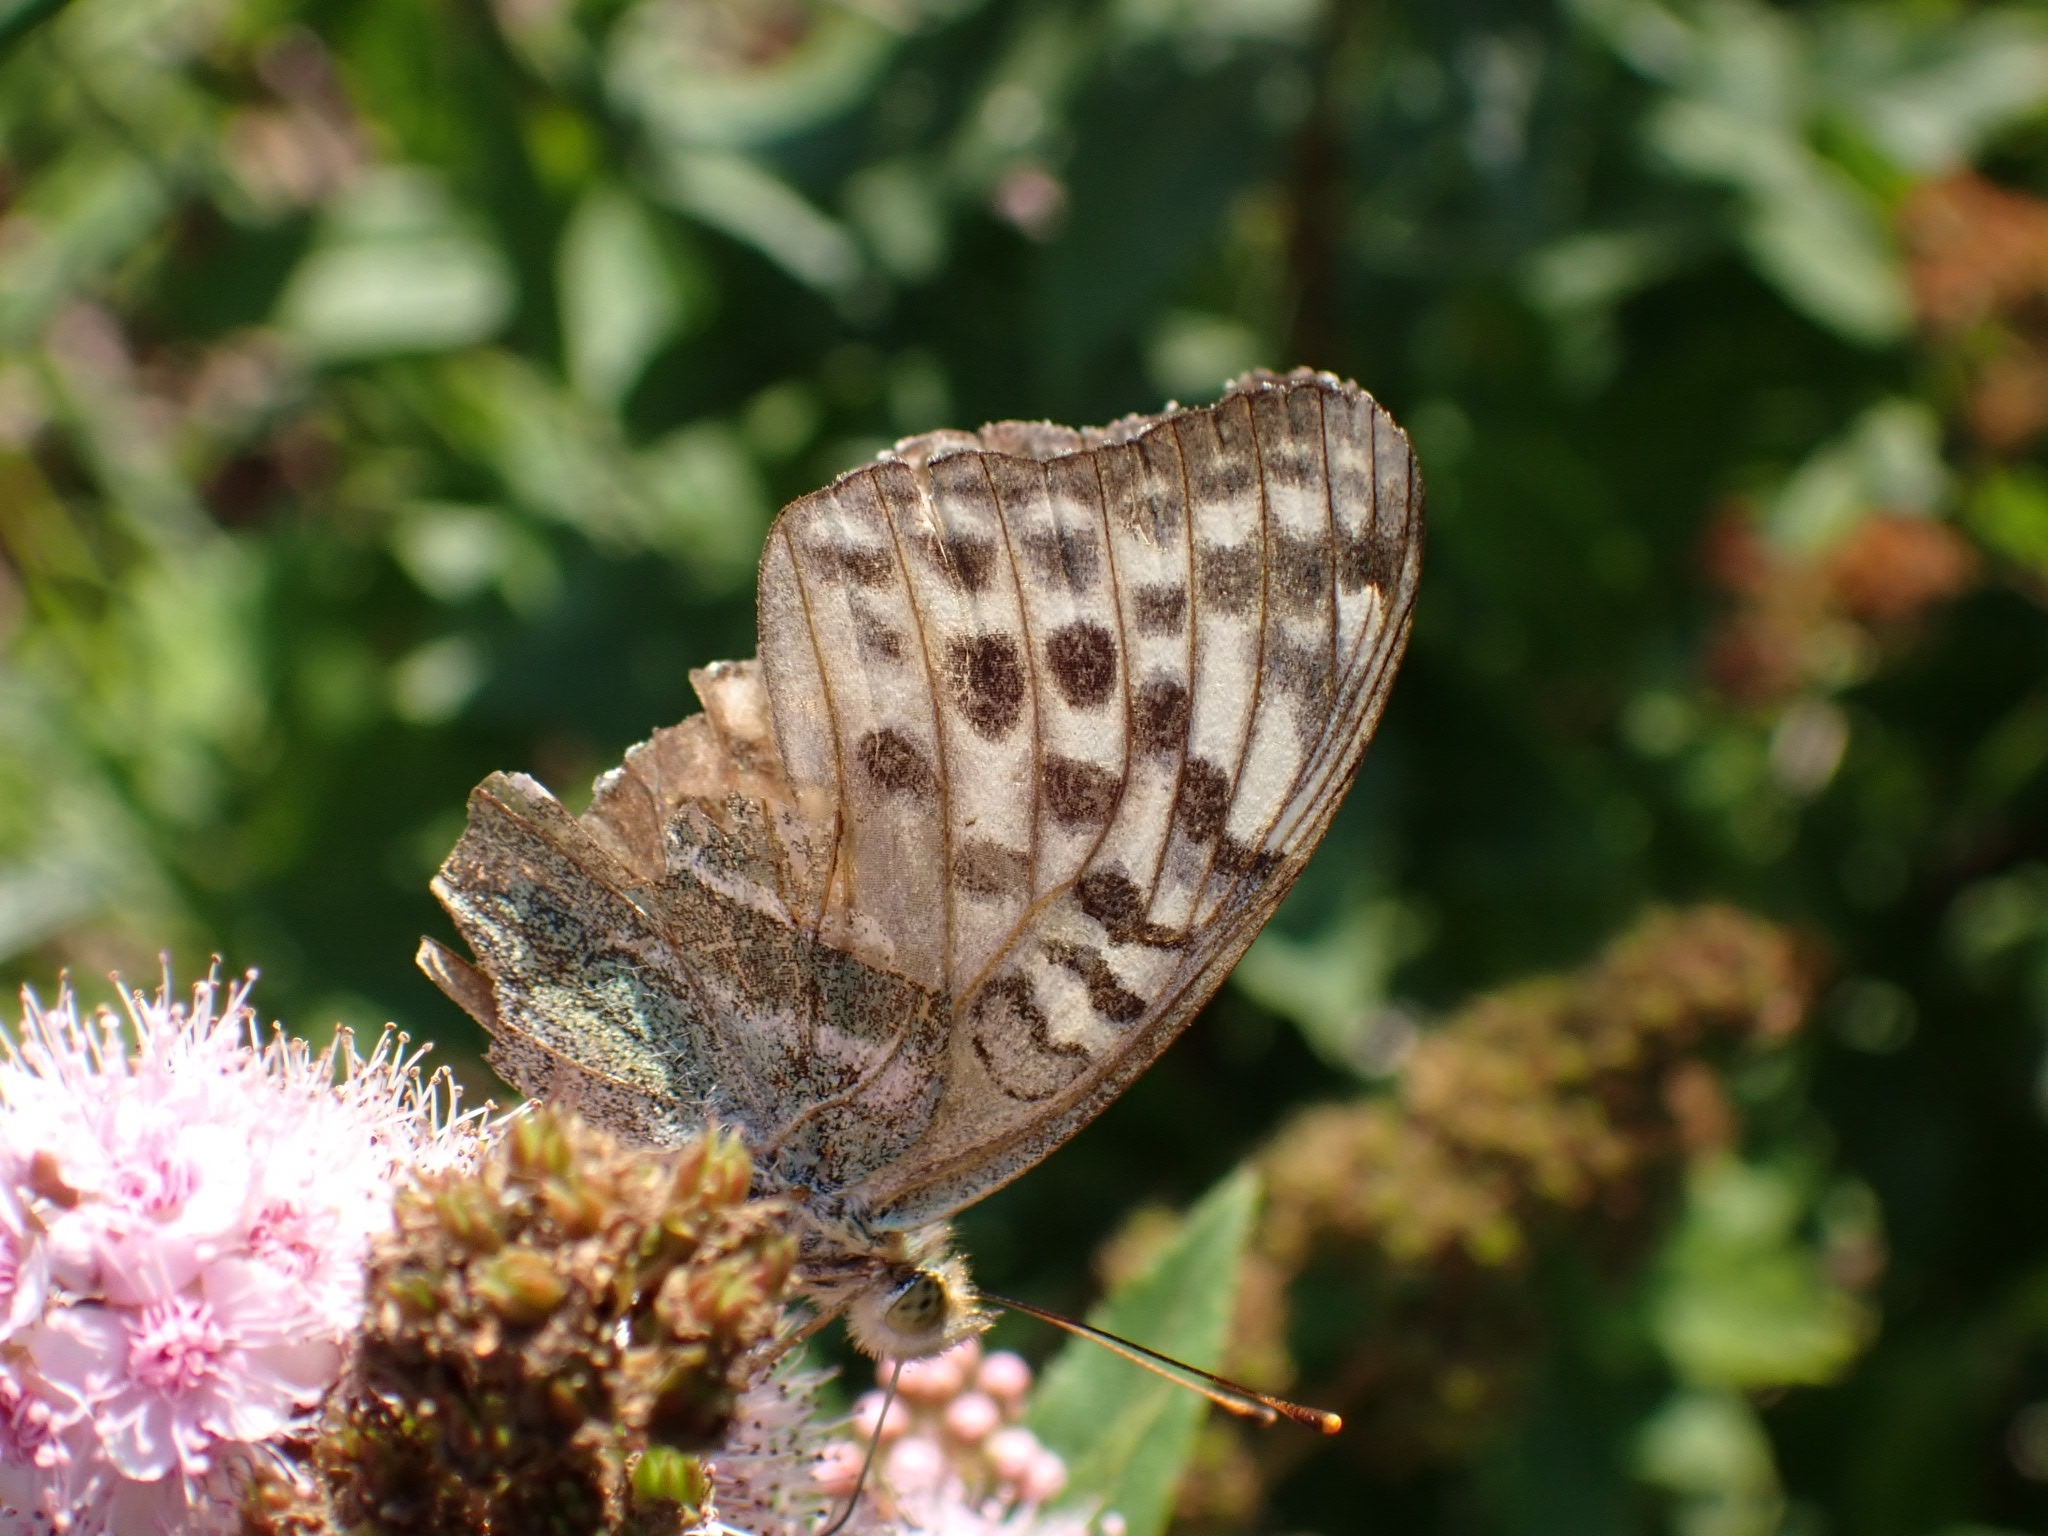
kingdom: Animalia
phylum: Arthropoda
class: Insecta
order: Lepidoptera
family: Nymphalidae
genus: Argynnis
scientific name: Argynnis paphia
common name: Silver-washed fritillary
